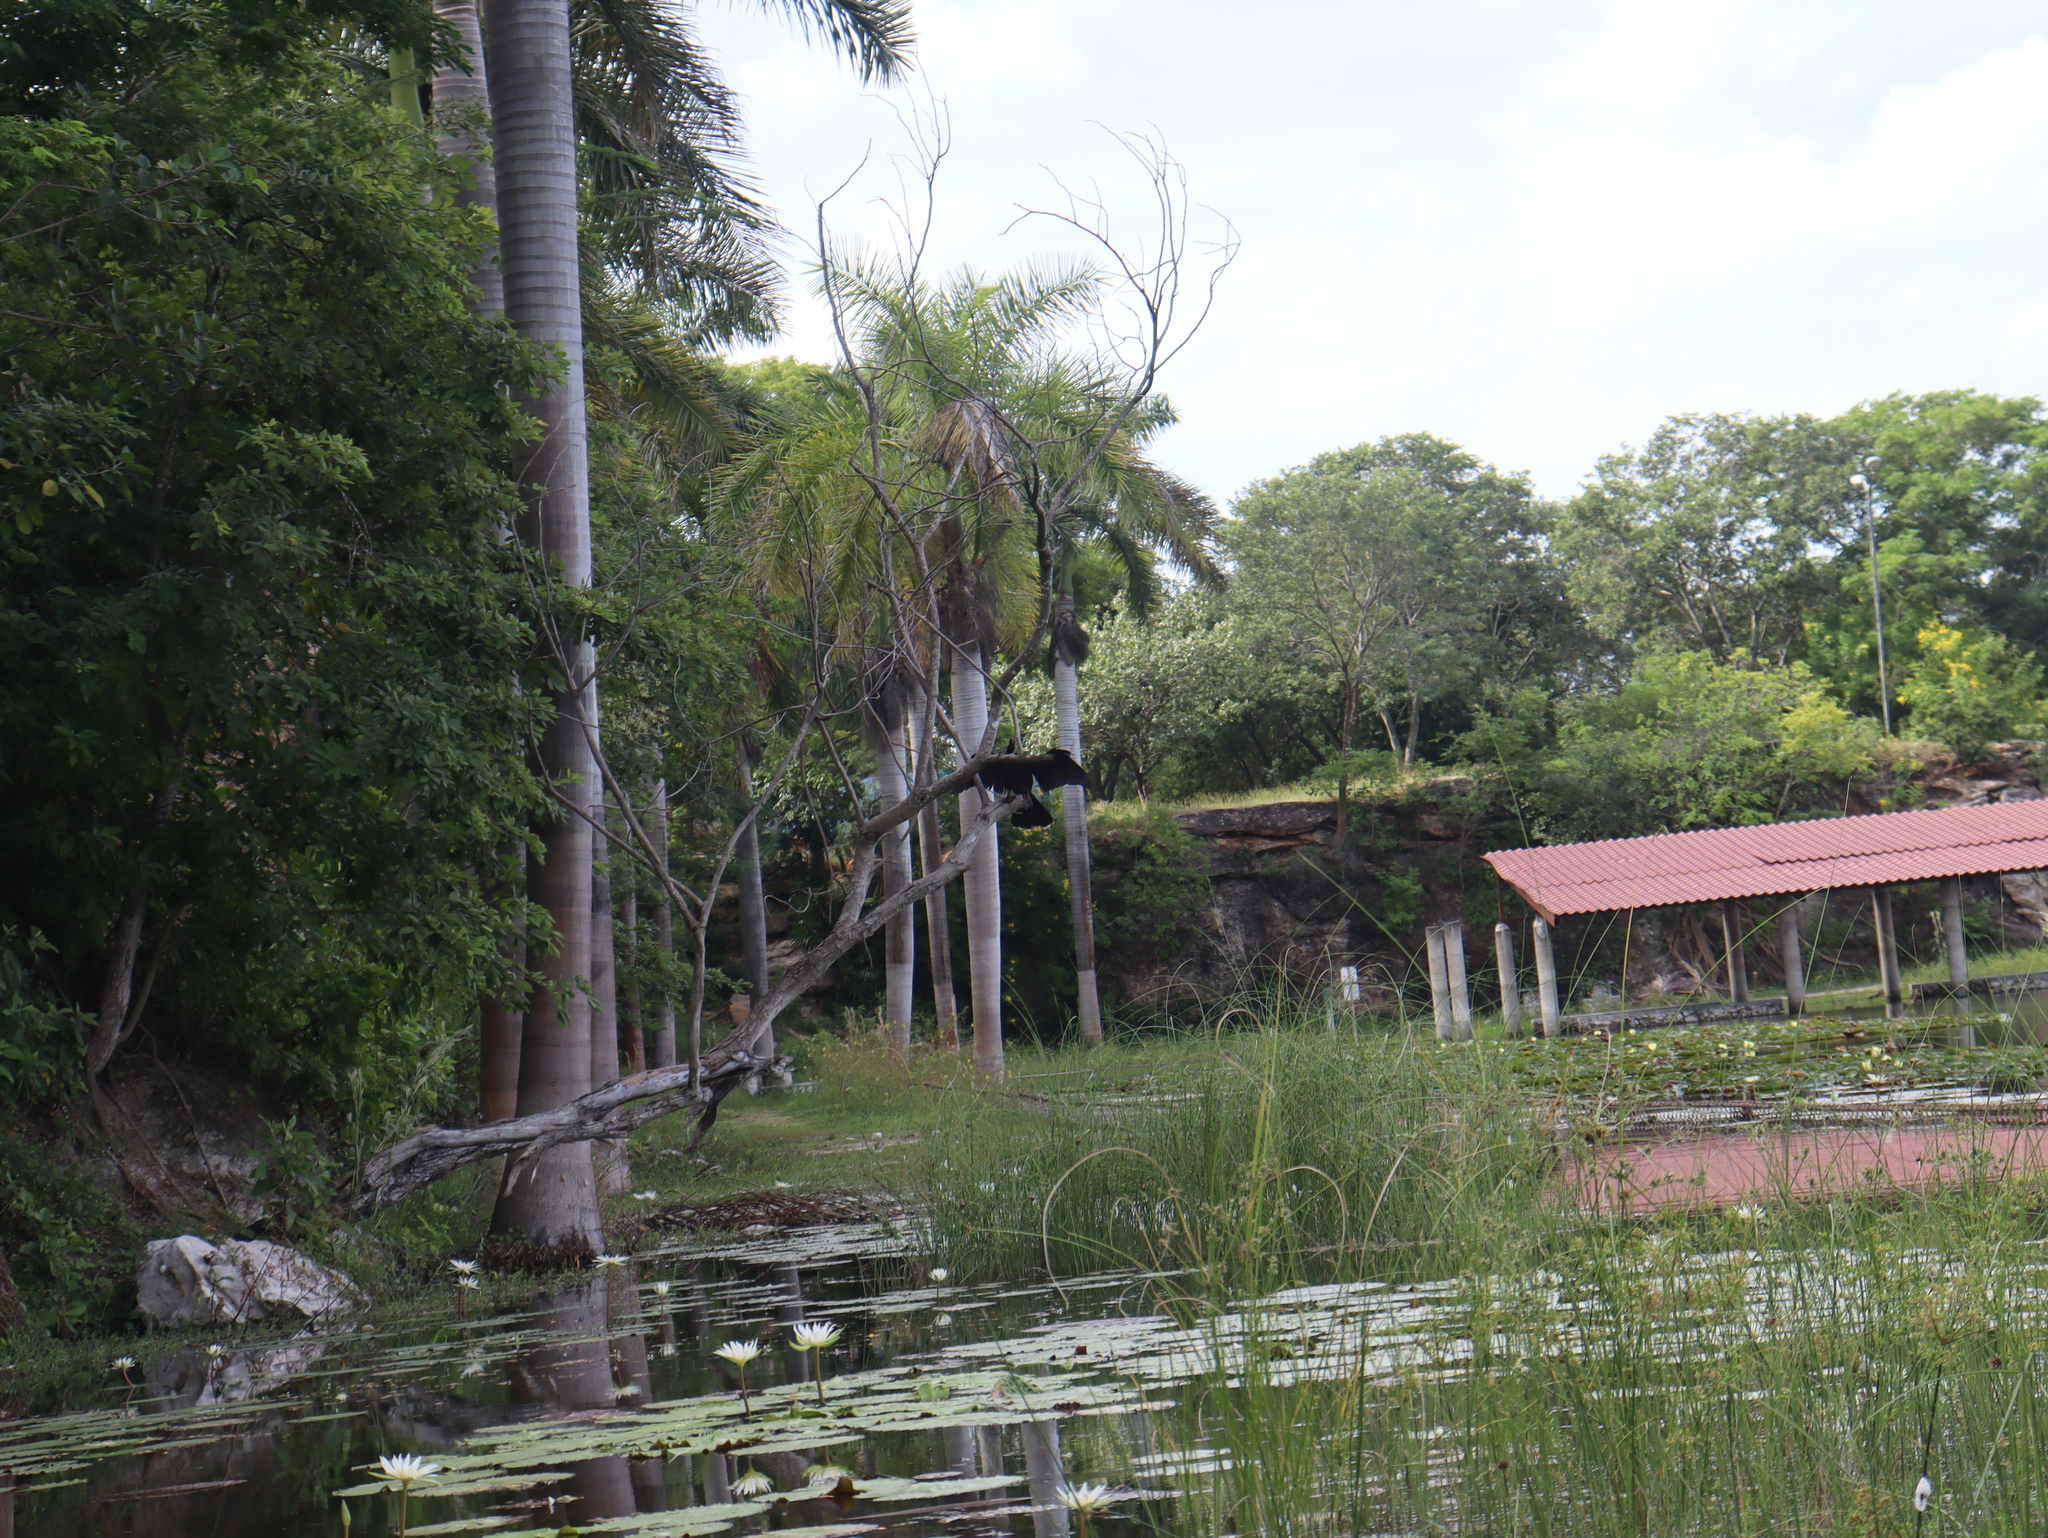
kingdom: Animalia
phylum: Chordata
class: Aves
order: Suliformes
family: Anhingidae
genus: Anhinga
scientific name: Anhinga anhinga
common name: Anhinga
